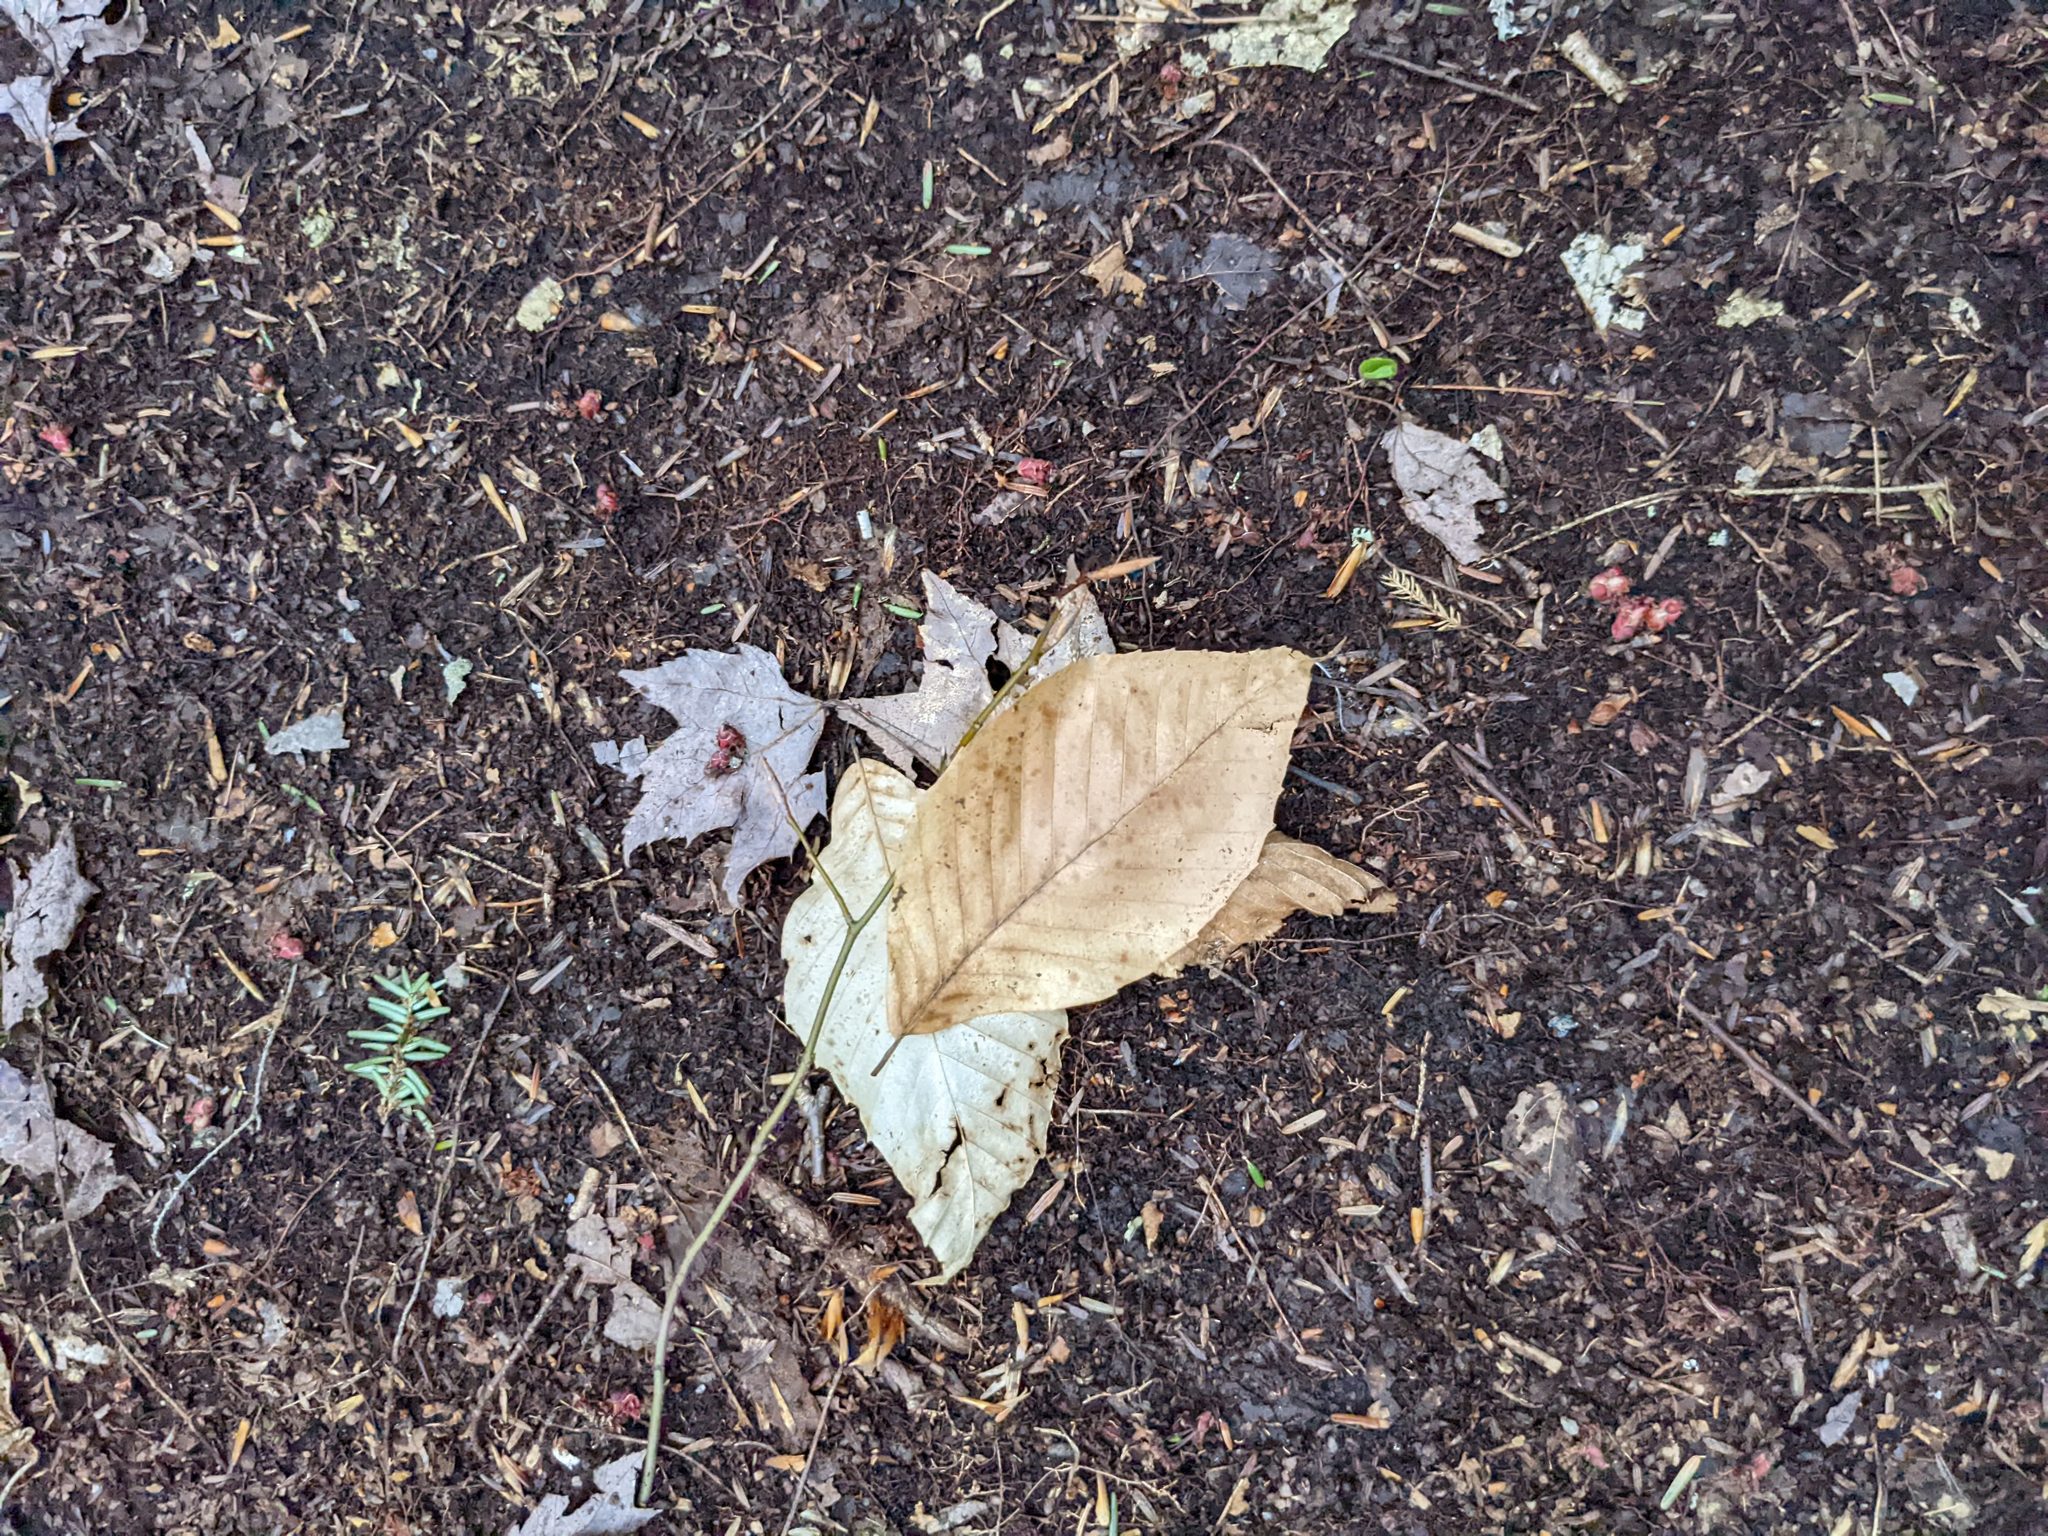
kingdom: Plantae
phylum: Tracheophyta
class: Magnoliopsida
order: Fagales
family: Fagaceae
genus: Fagus
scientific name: Fagus grandifolia
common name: American beech
